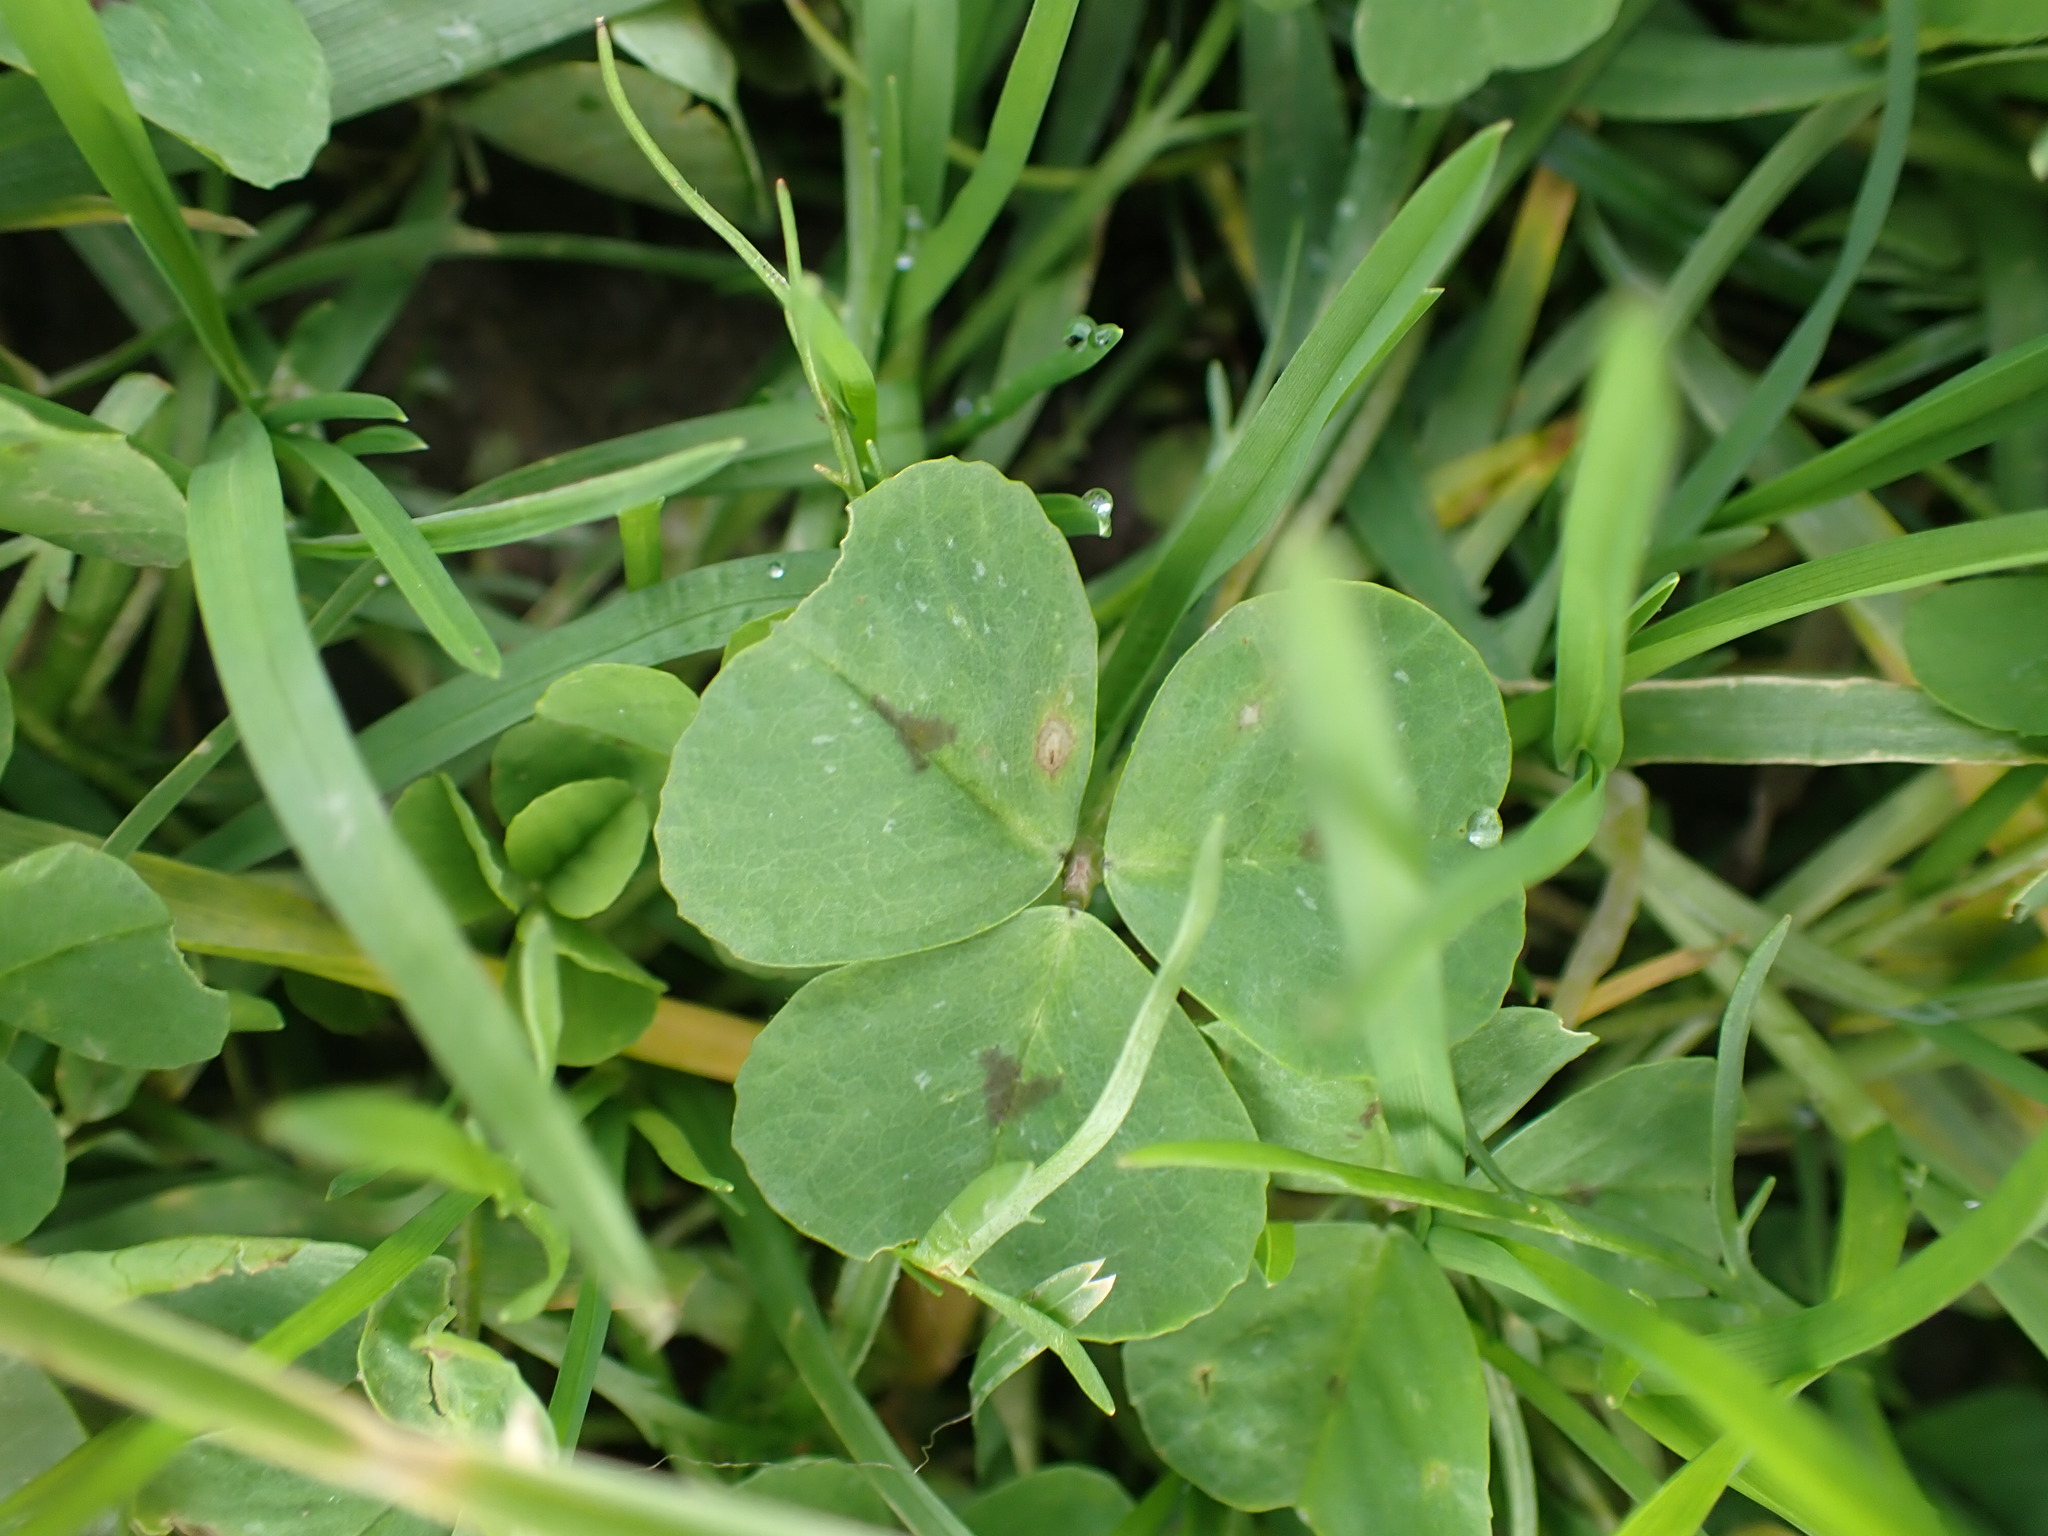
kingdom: Plantae
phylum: Tracheophyta
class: Magnoliopsida
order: Fabales
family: Fabaceae
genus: Medicago
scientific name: Medicago arabica
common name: Spotted medick
